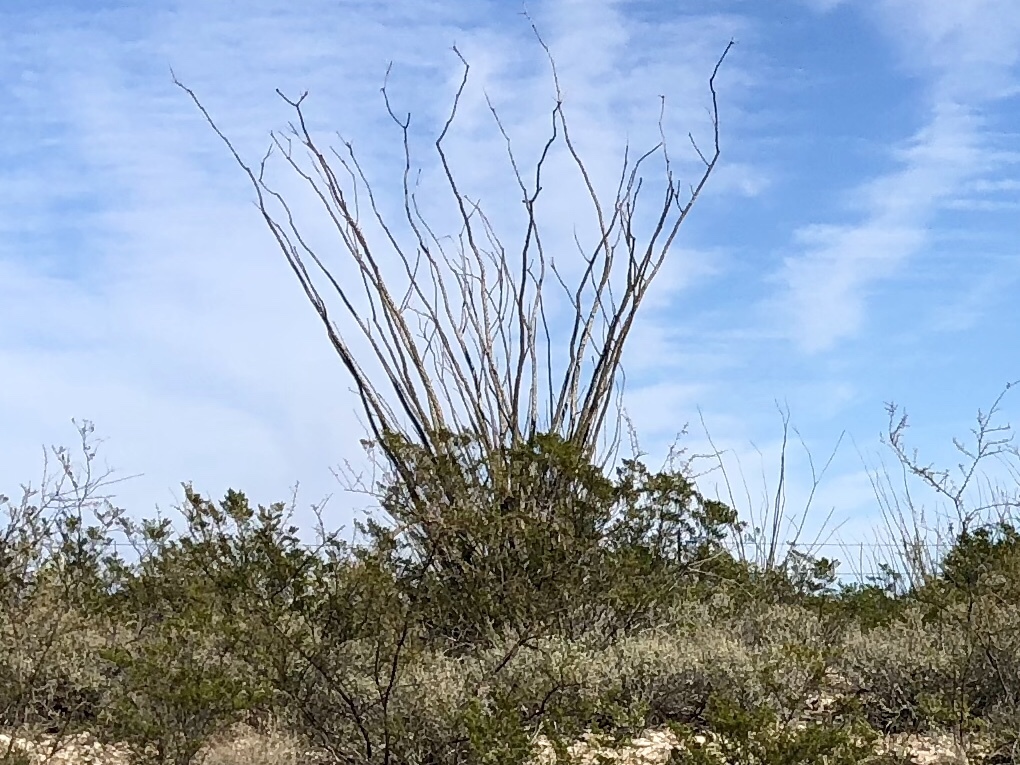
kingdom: Plantae
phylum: Tracheophyta
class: Magnoliopsida
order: Ericales
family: Fouquieriaceae
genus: Fouquieria
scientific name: Fouquieria splendens
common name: Vine-cactus
